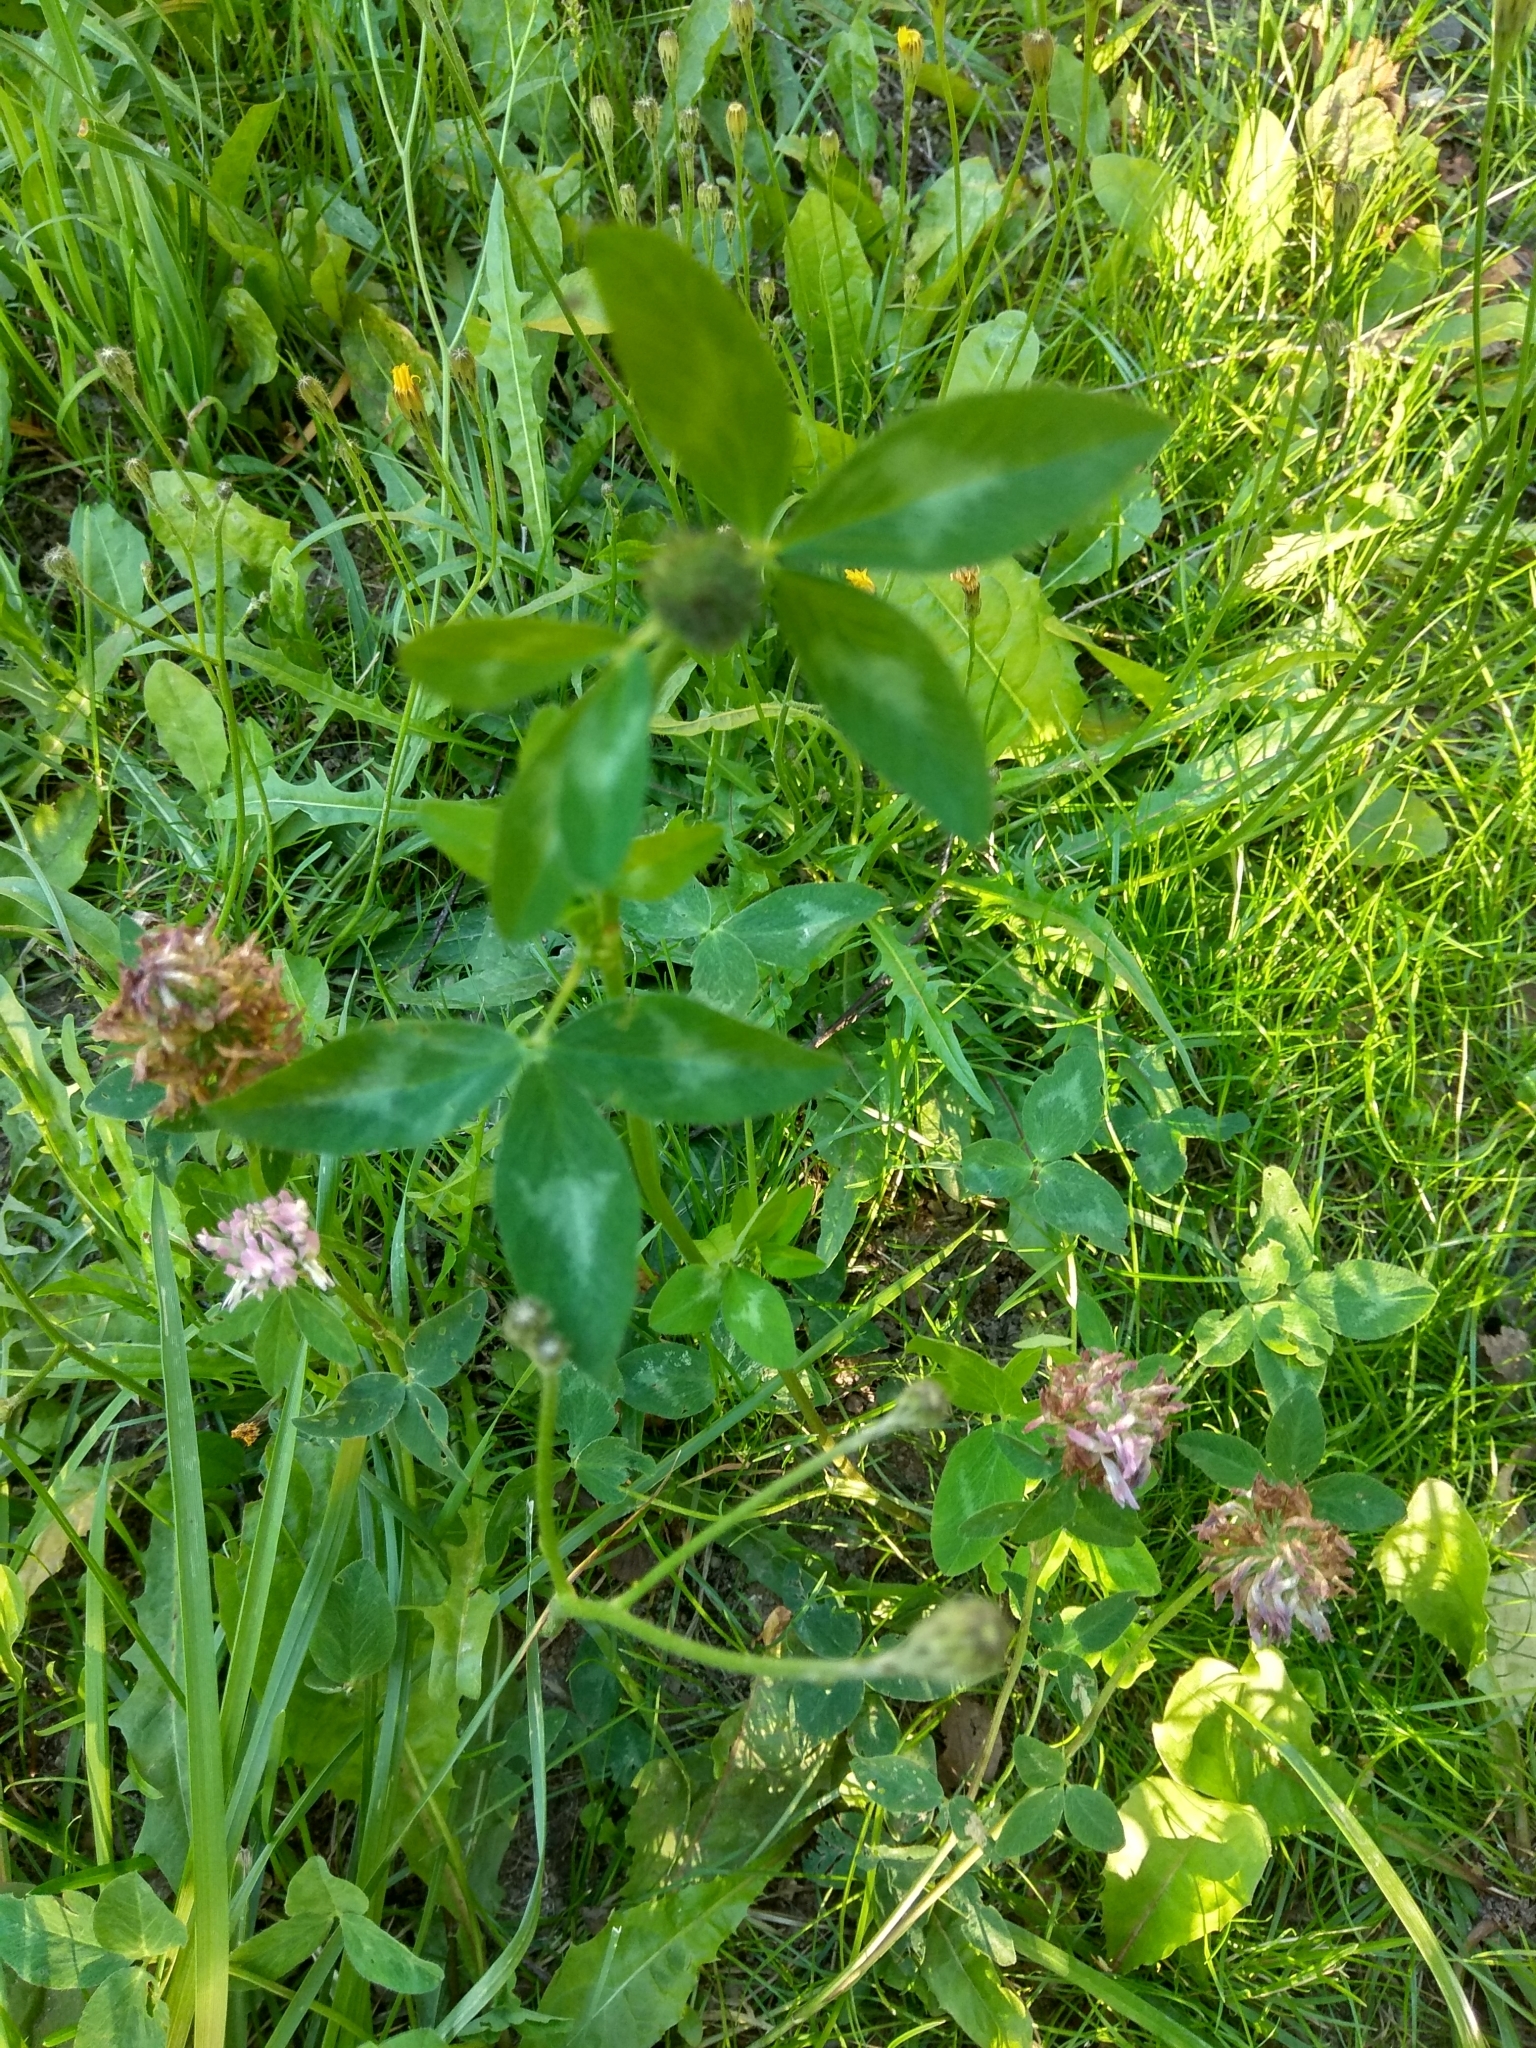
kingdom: Plantae
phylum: Tracheophyta
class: Magnoliopsida
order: Fabales
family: Fabaceae
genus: Trifolium
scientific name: Trifolium pratense
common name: Red clover
